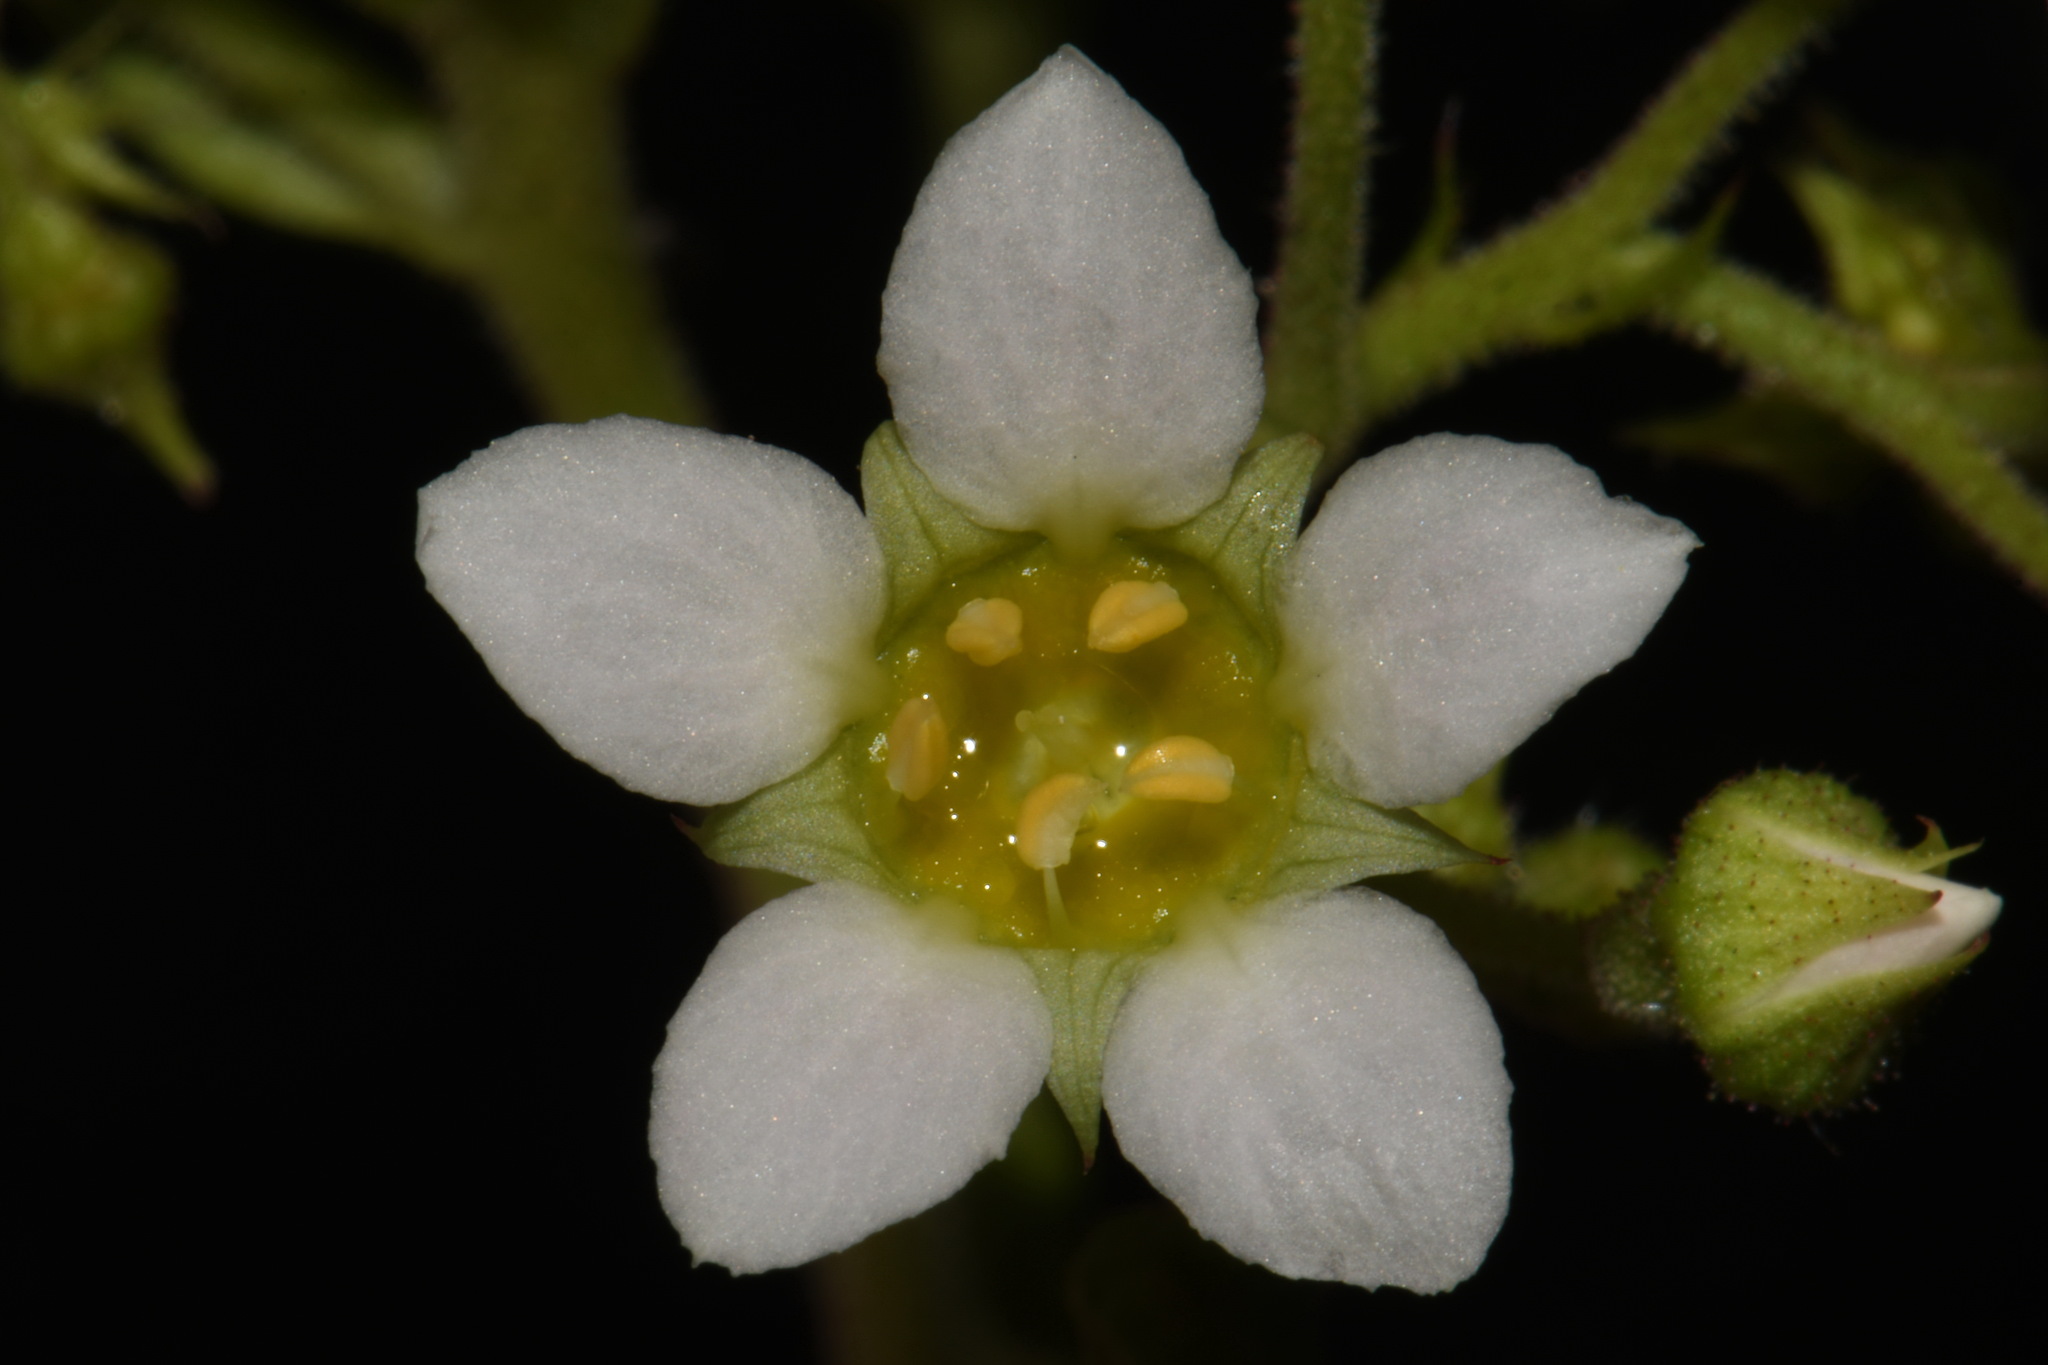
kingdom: Plantae
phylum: Tracheophyta
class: Magnoliopsida
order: Saxifragales
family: Saxifragaceae
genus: Boykinia
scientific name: Boykinia major
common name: Large boykinia
